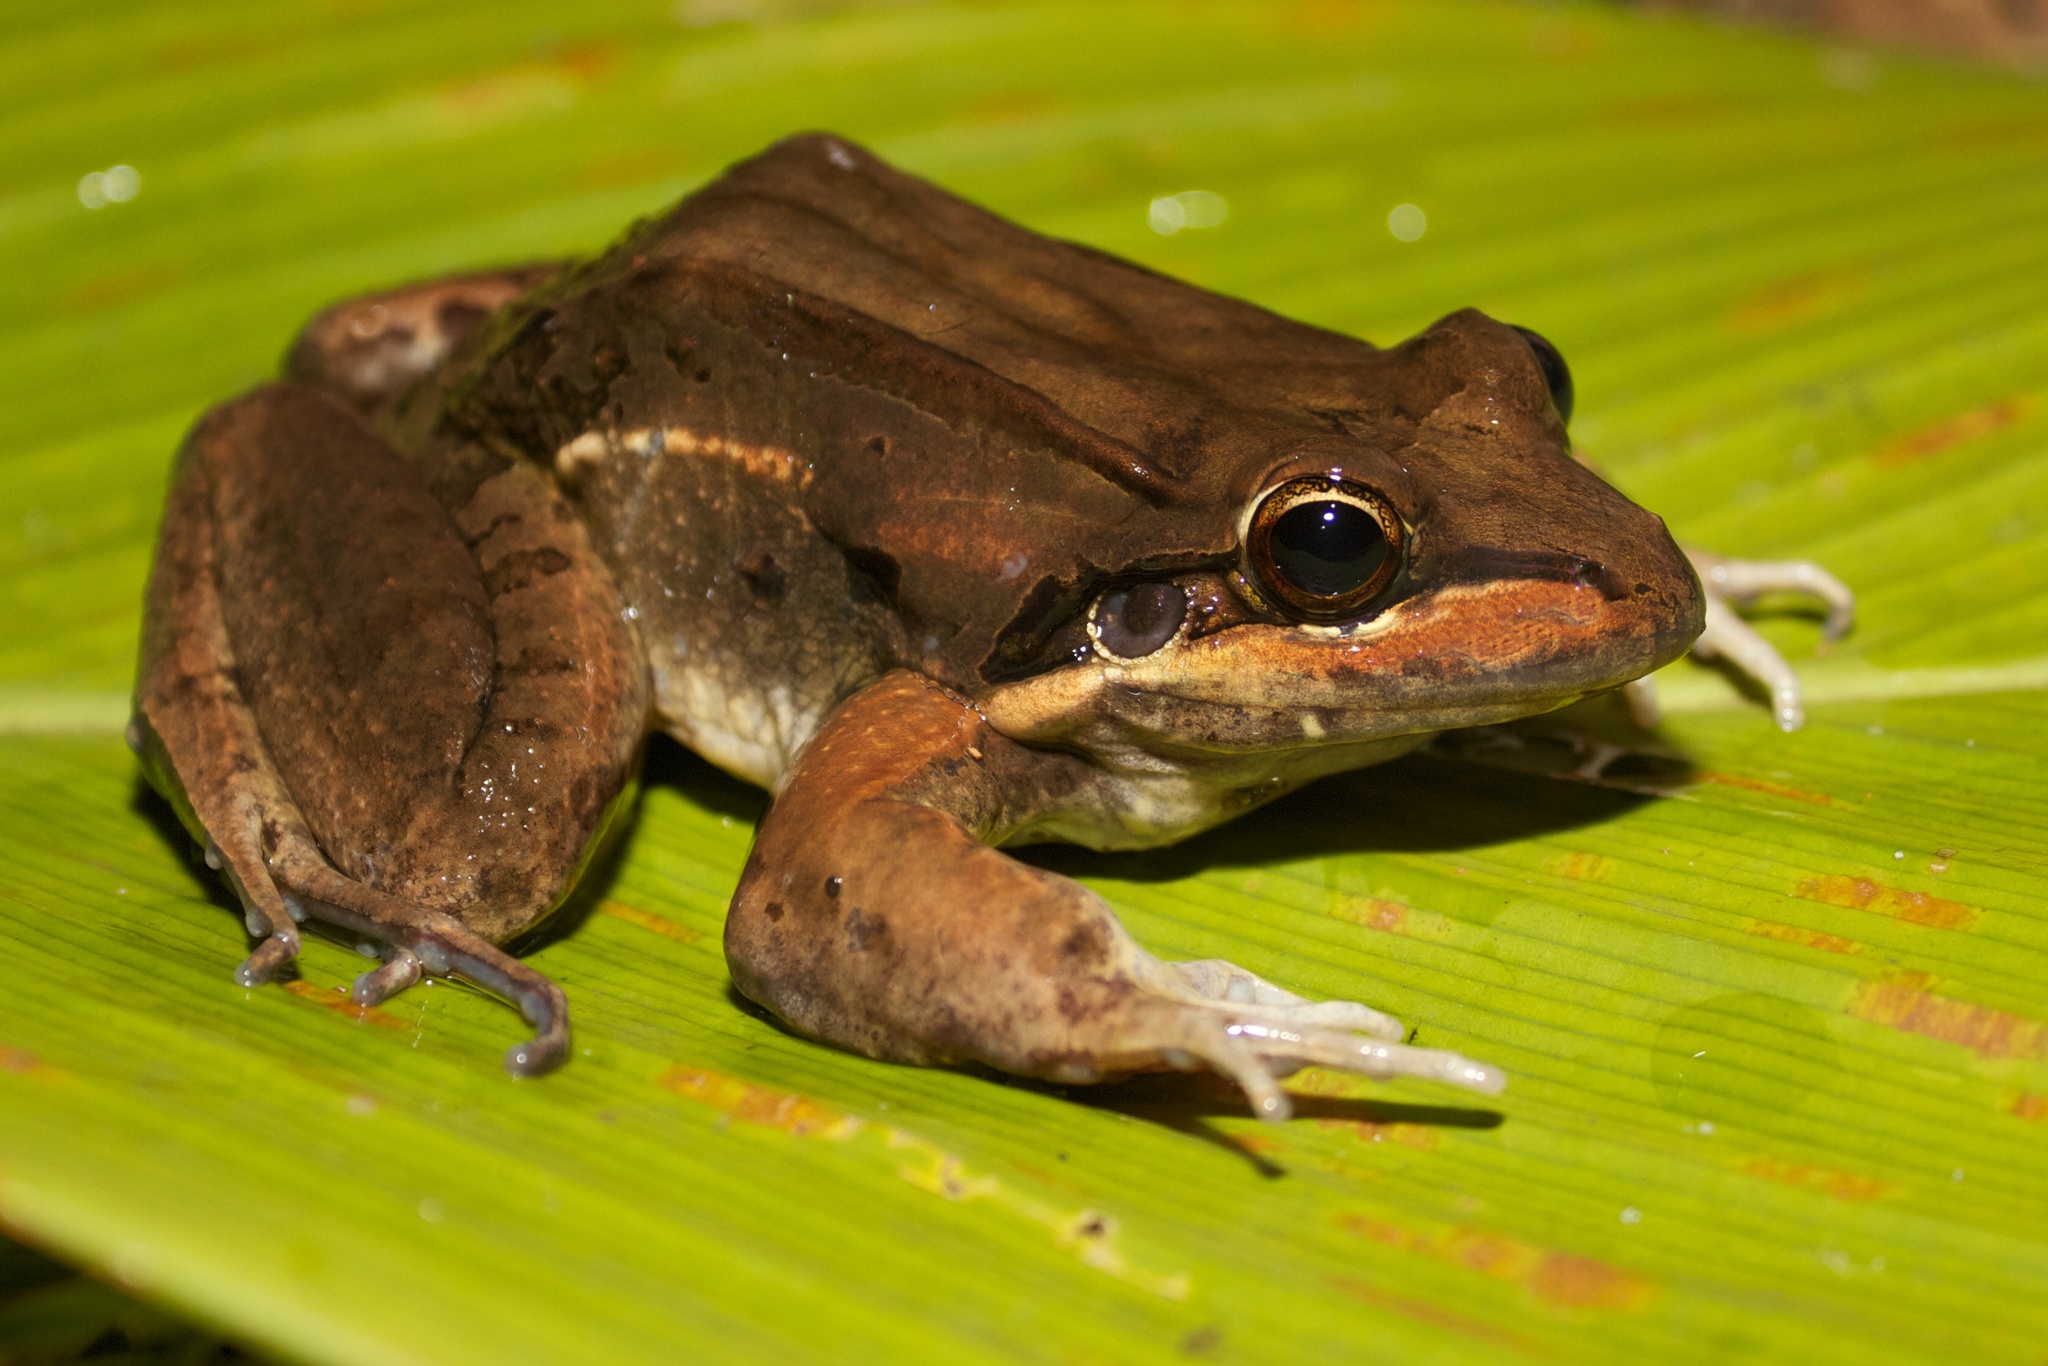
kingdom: Animalia
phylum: Chordata
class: Amphibia
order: Anura
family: Leptodactylidae
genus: Leptodactylus
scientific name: Leptodactylus insularum
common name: San miguel island frog
